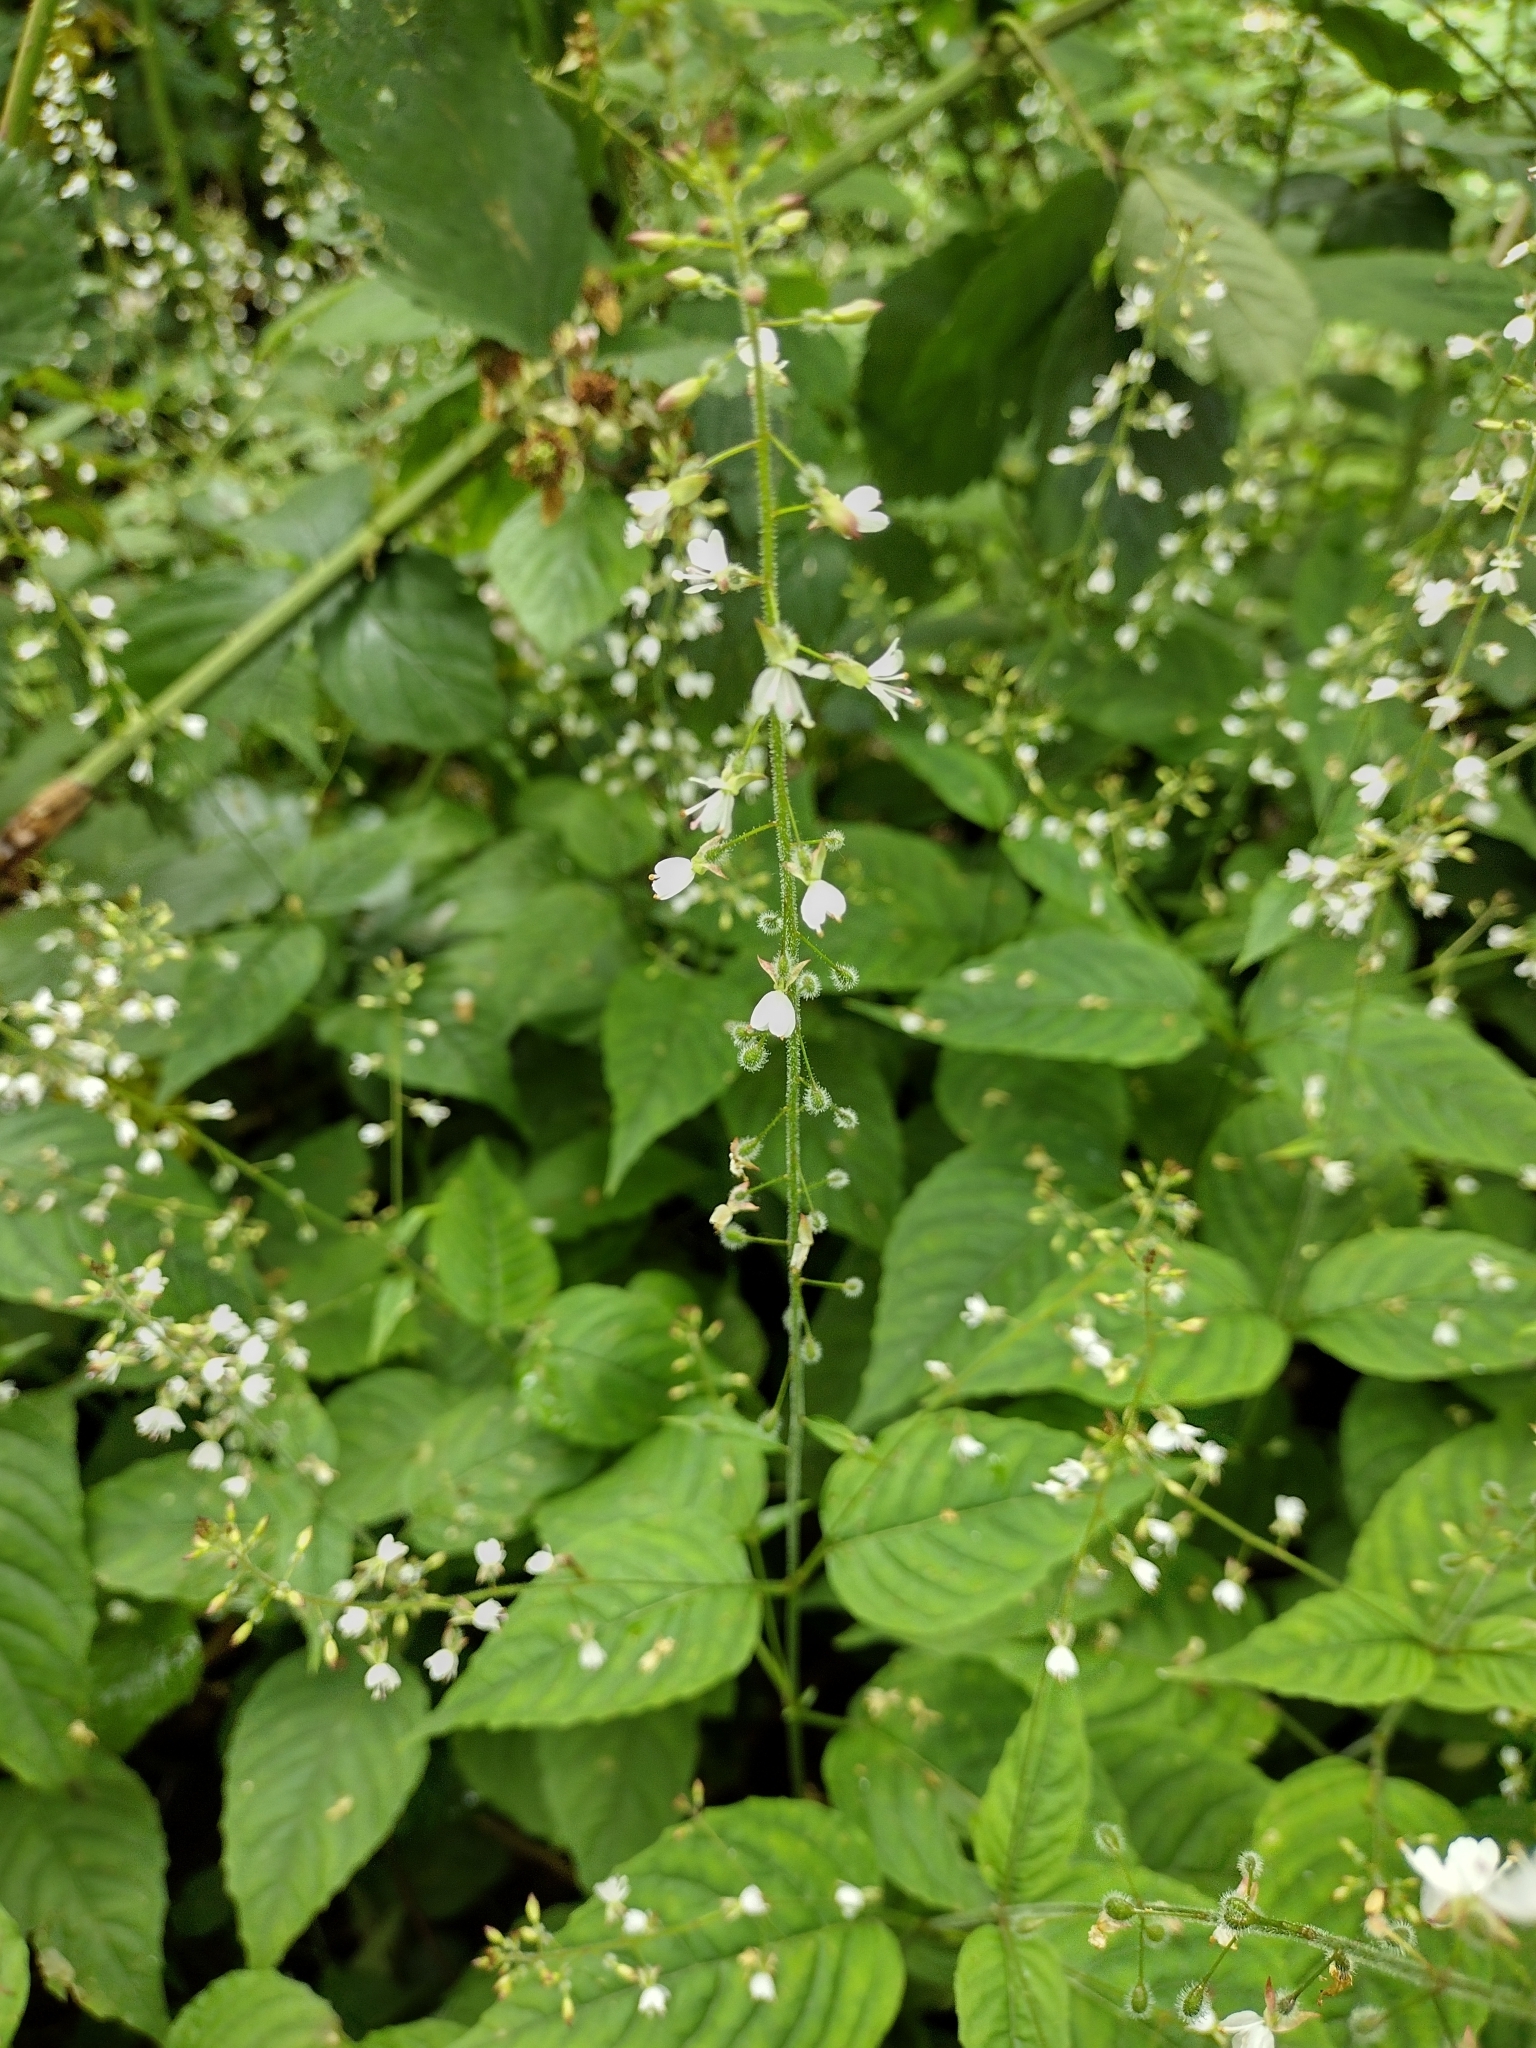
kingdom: Plantae
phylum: Tracheophyta
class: Magnoliopsida
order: Myrtales
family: Onagraceae
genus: Circaea
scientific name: Circaea lutetiana
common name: Enchanter's-nightshade
